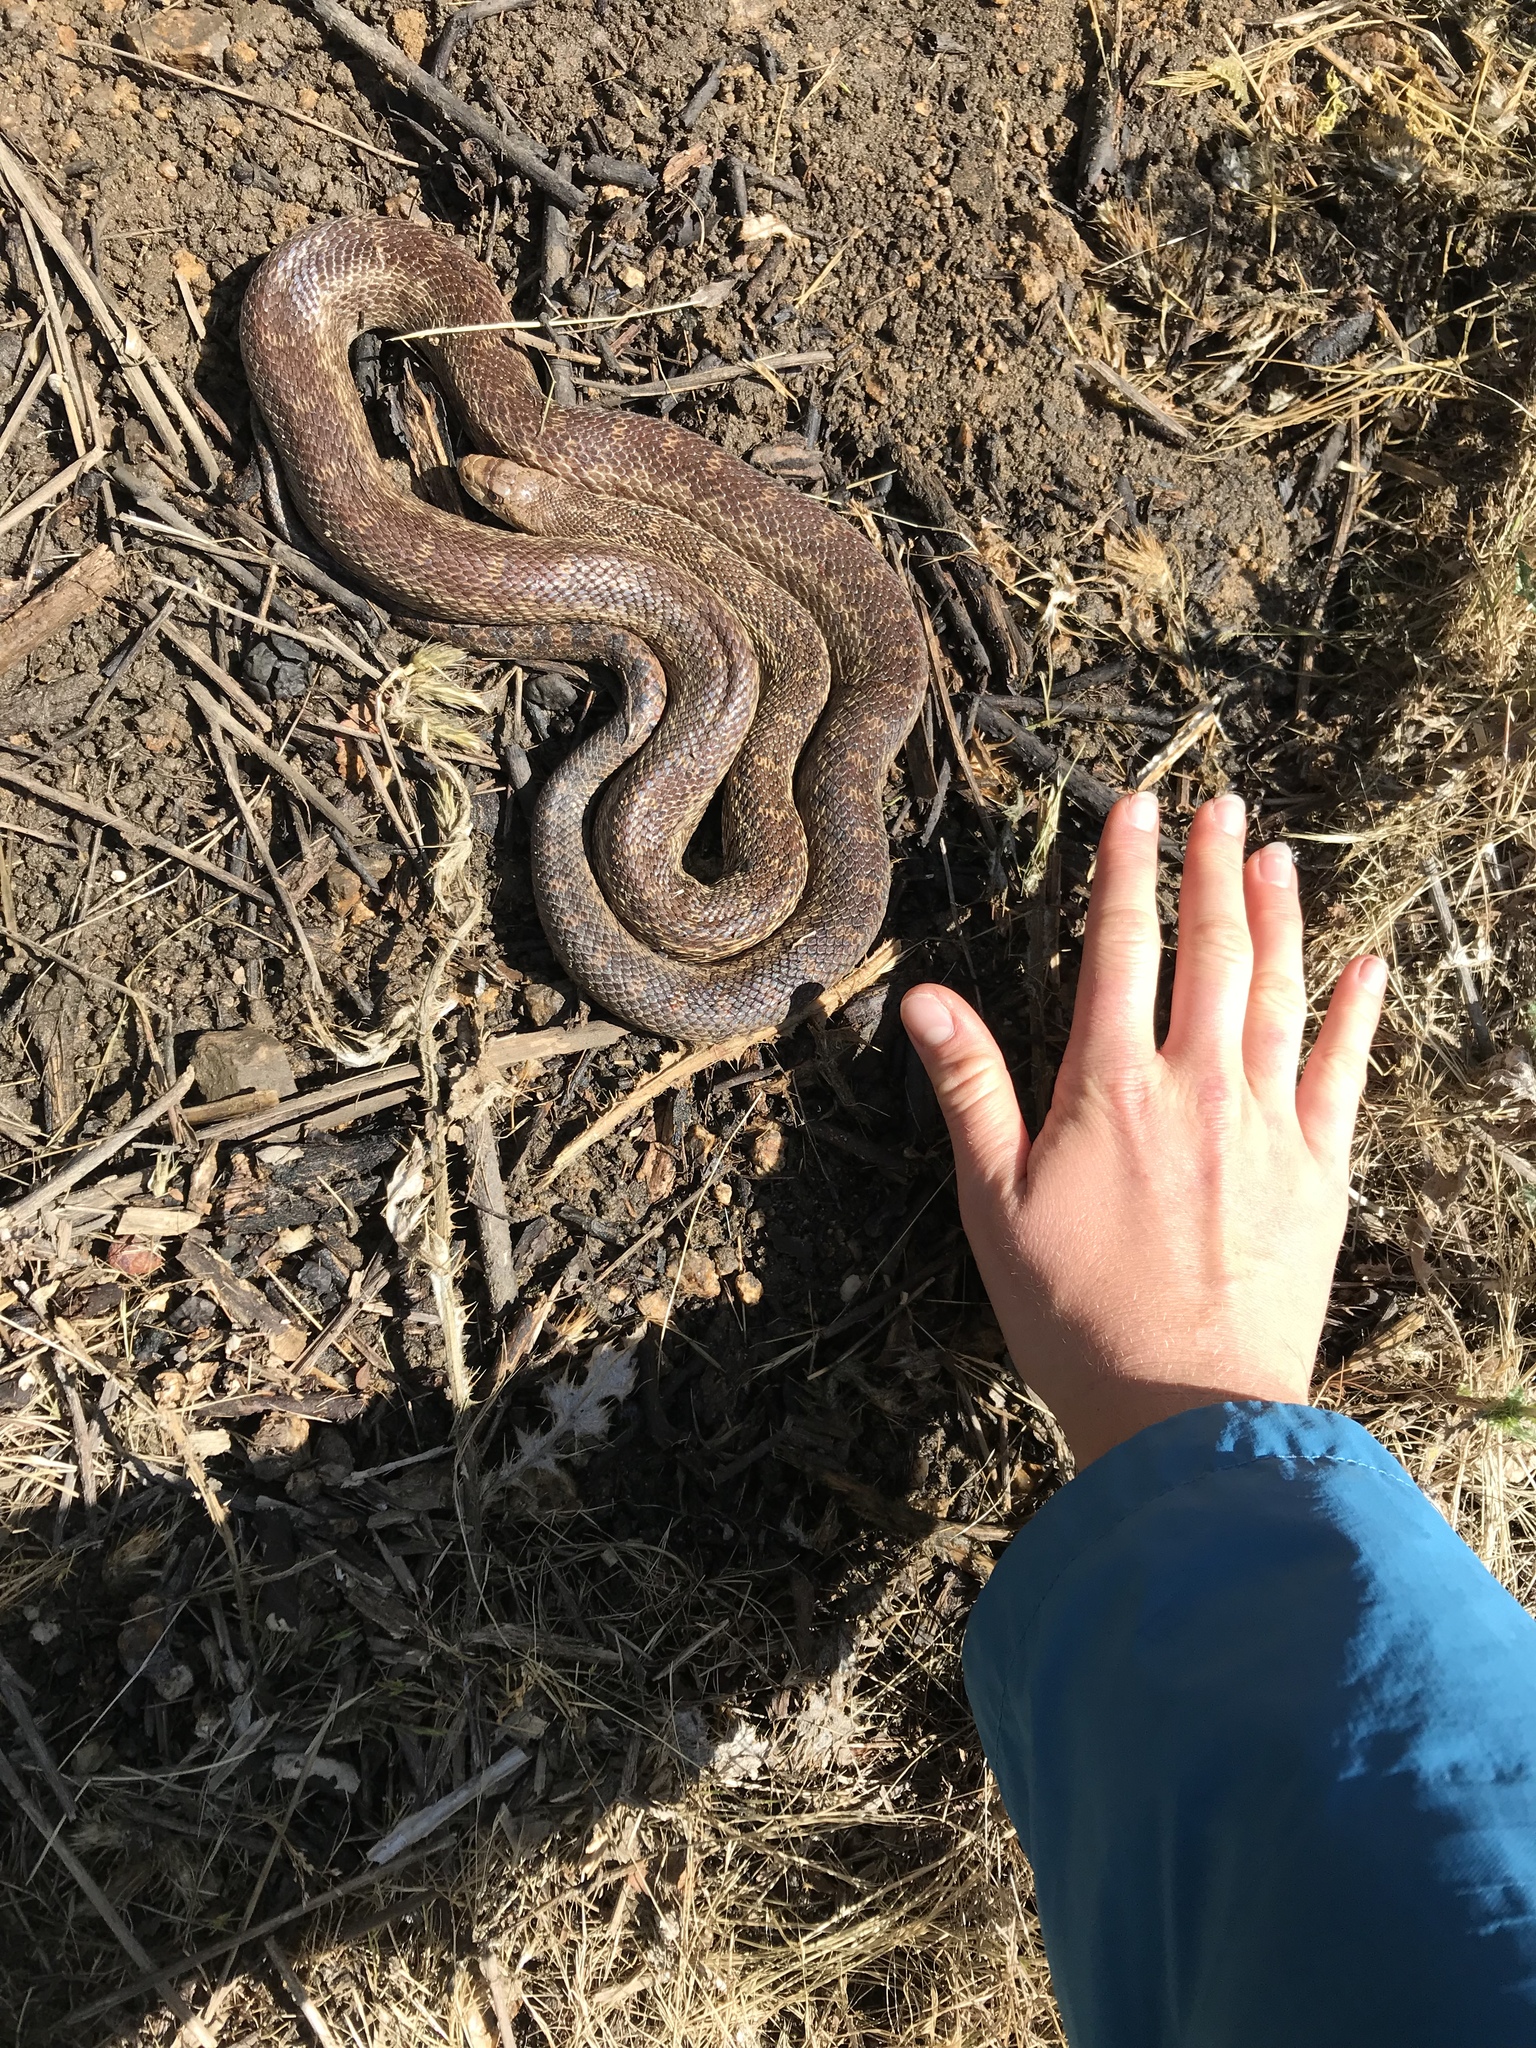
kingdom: Animalia
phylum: Chordata
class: Squamata
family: Colubridae
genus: Pituophis
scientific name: Pituophis catenifer
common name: Gopher snake
